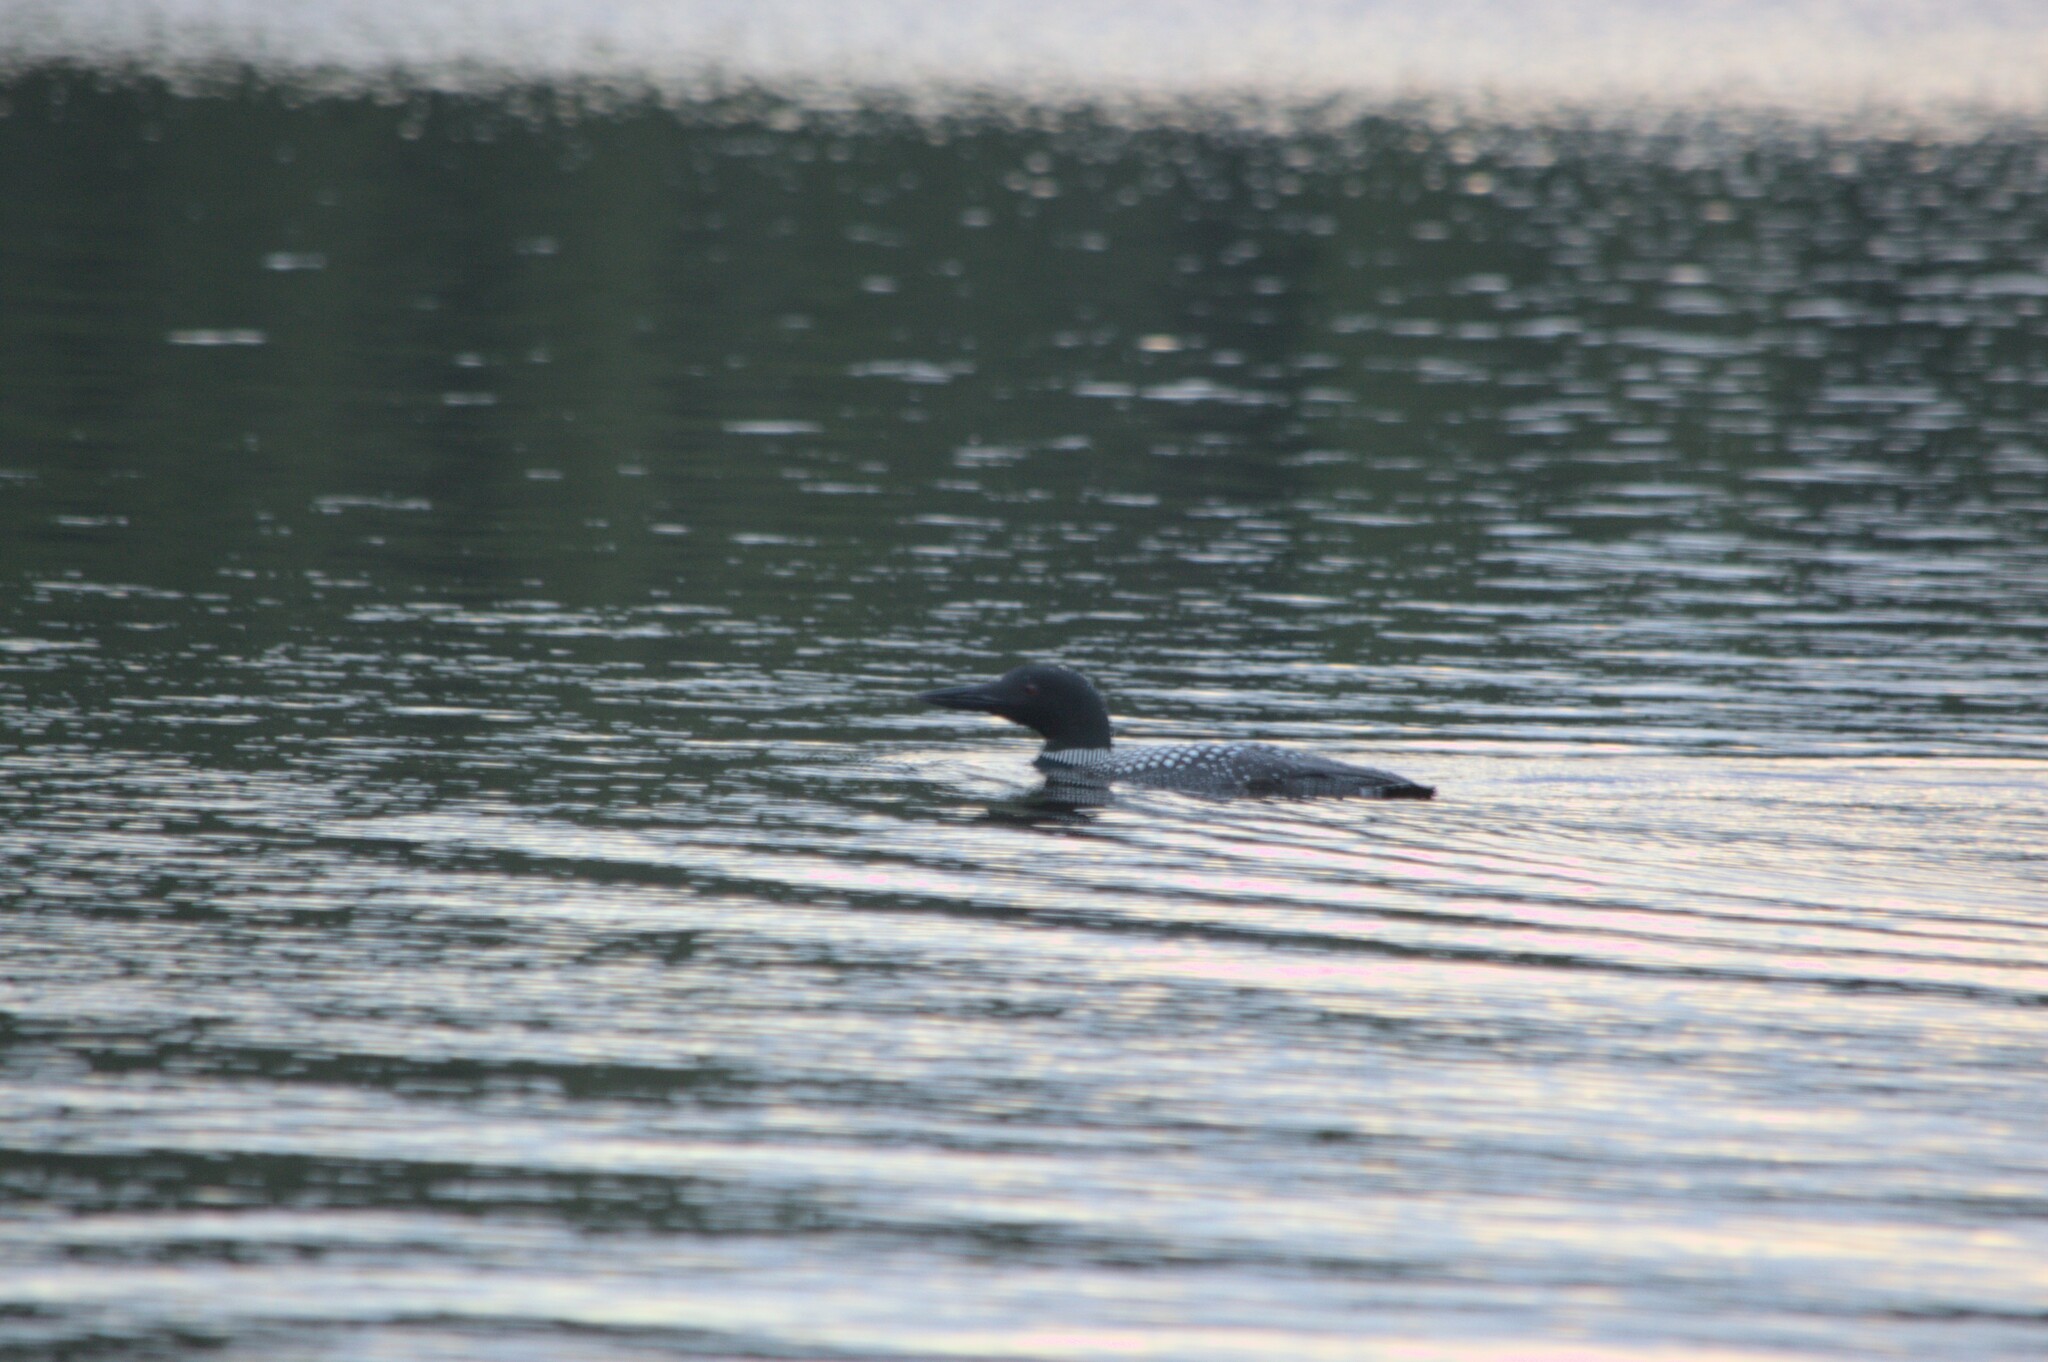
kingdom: Animalia
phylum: Chordata
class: Aves
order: Gaviiformes
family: Gaviidae
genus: Gavia
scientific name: Gavia immer
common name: Common loon
